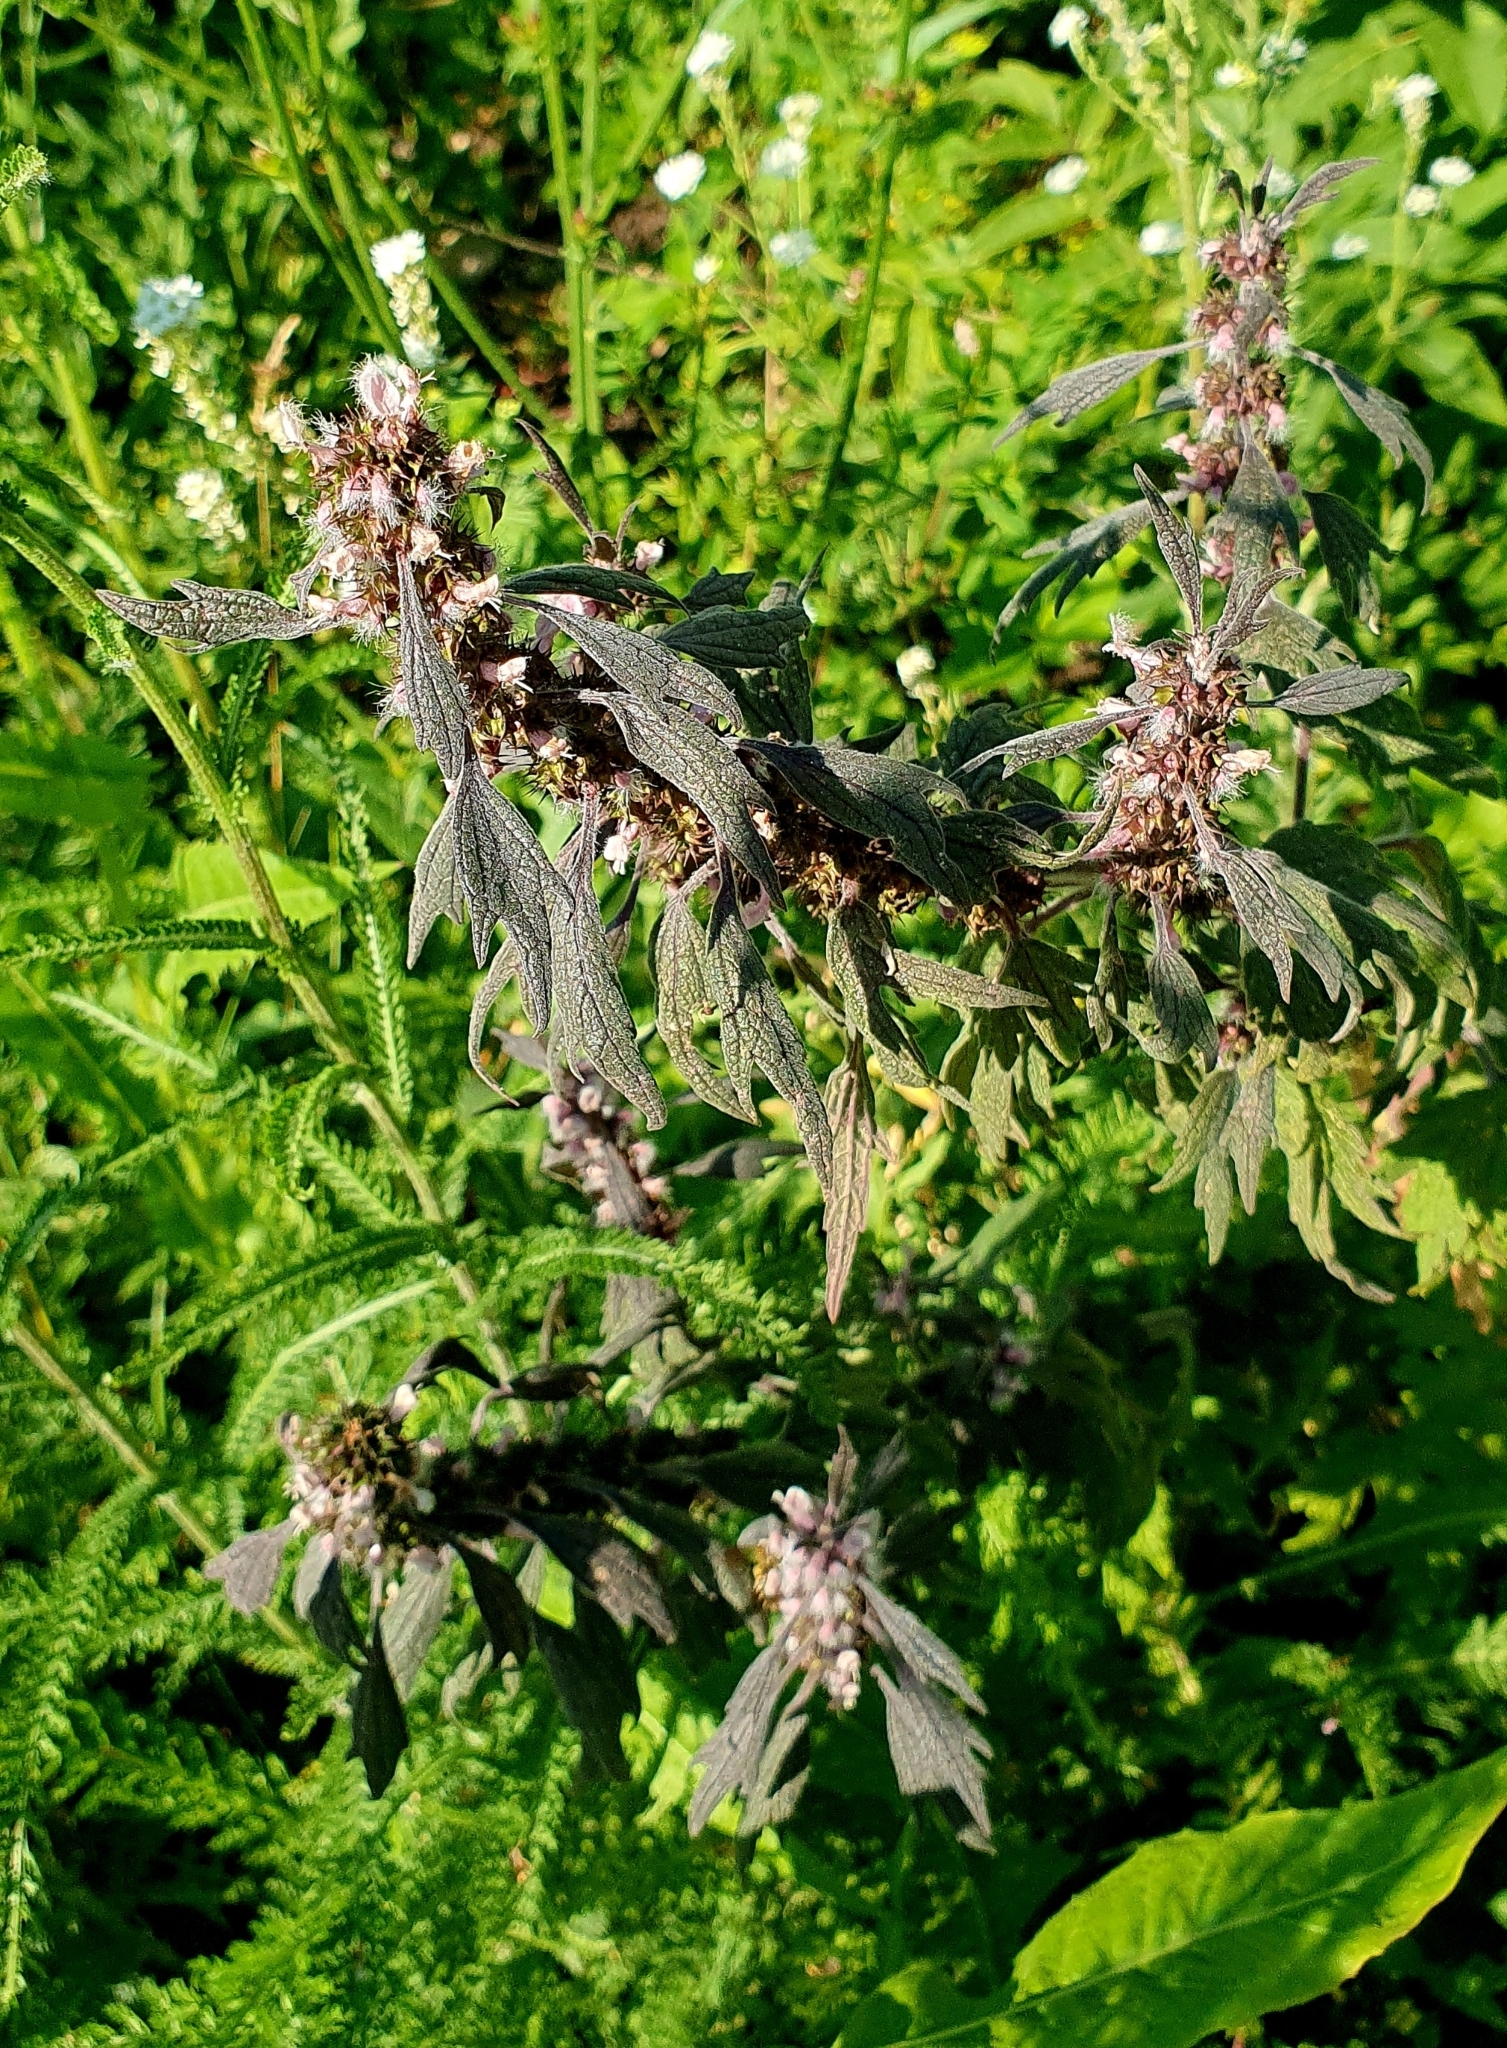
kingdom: Plantae
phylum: Tracheophyta
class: Magnoliopsida
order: Lamiales
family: Lamiaceae
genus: Leonurus
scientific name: Leonurus quinquelobatus
